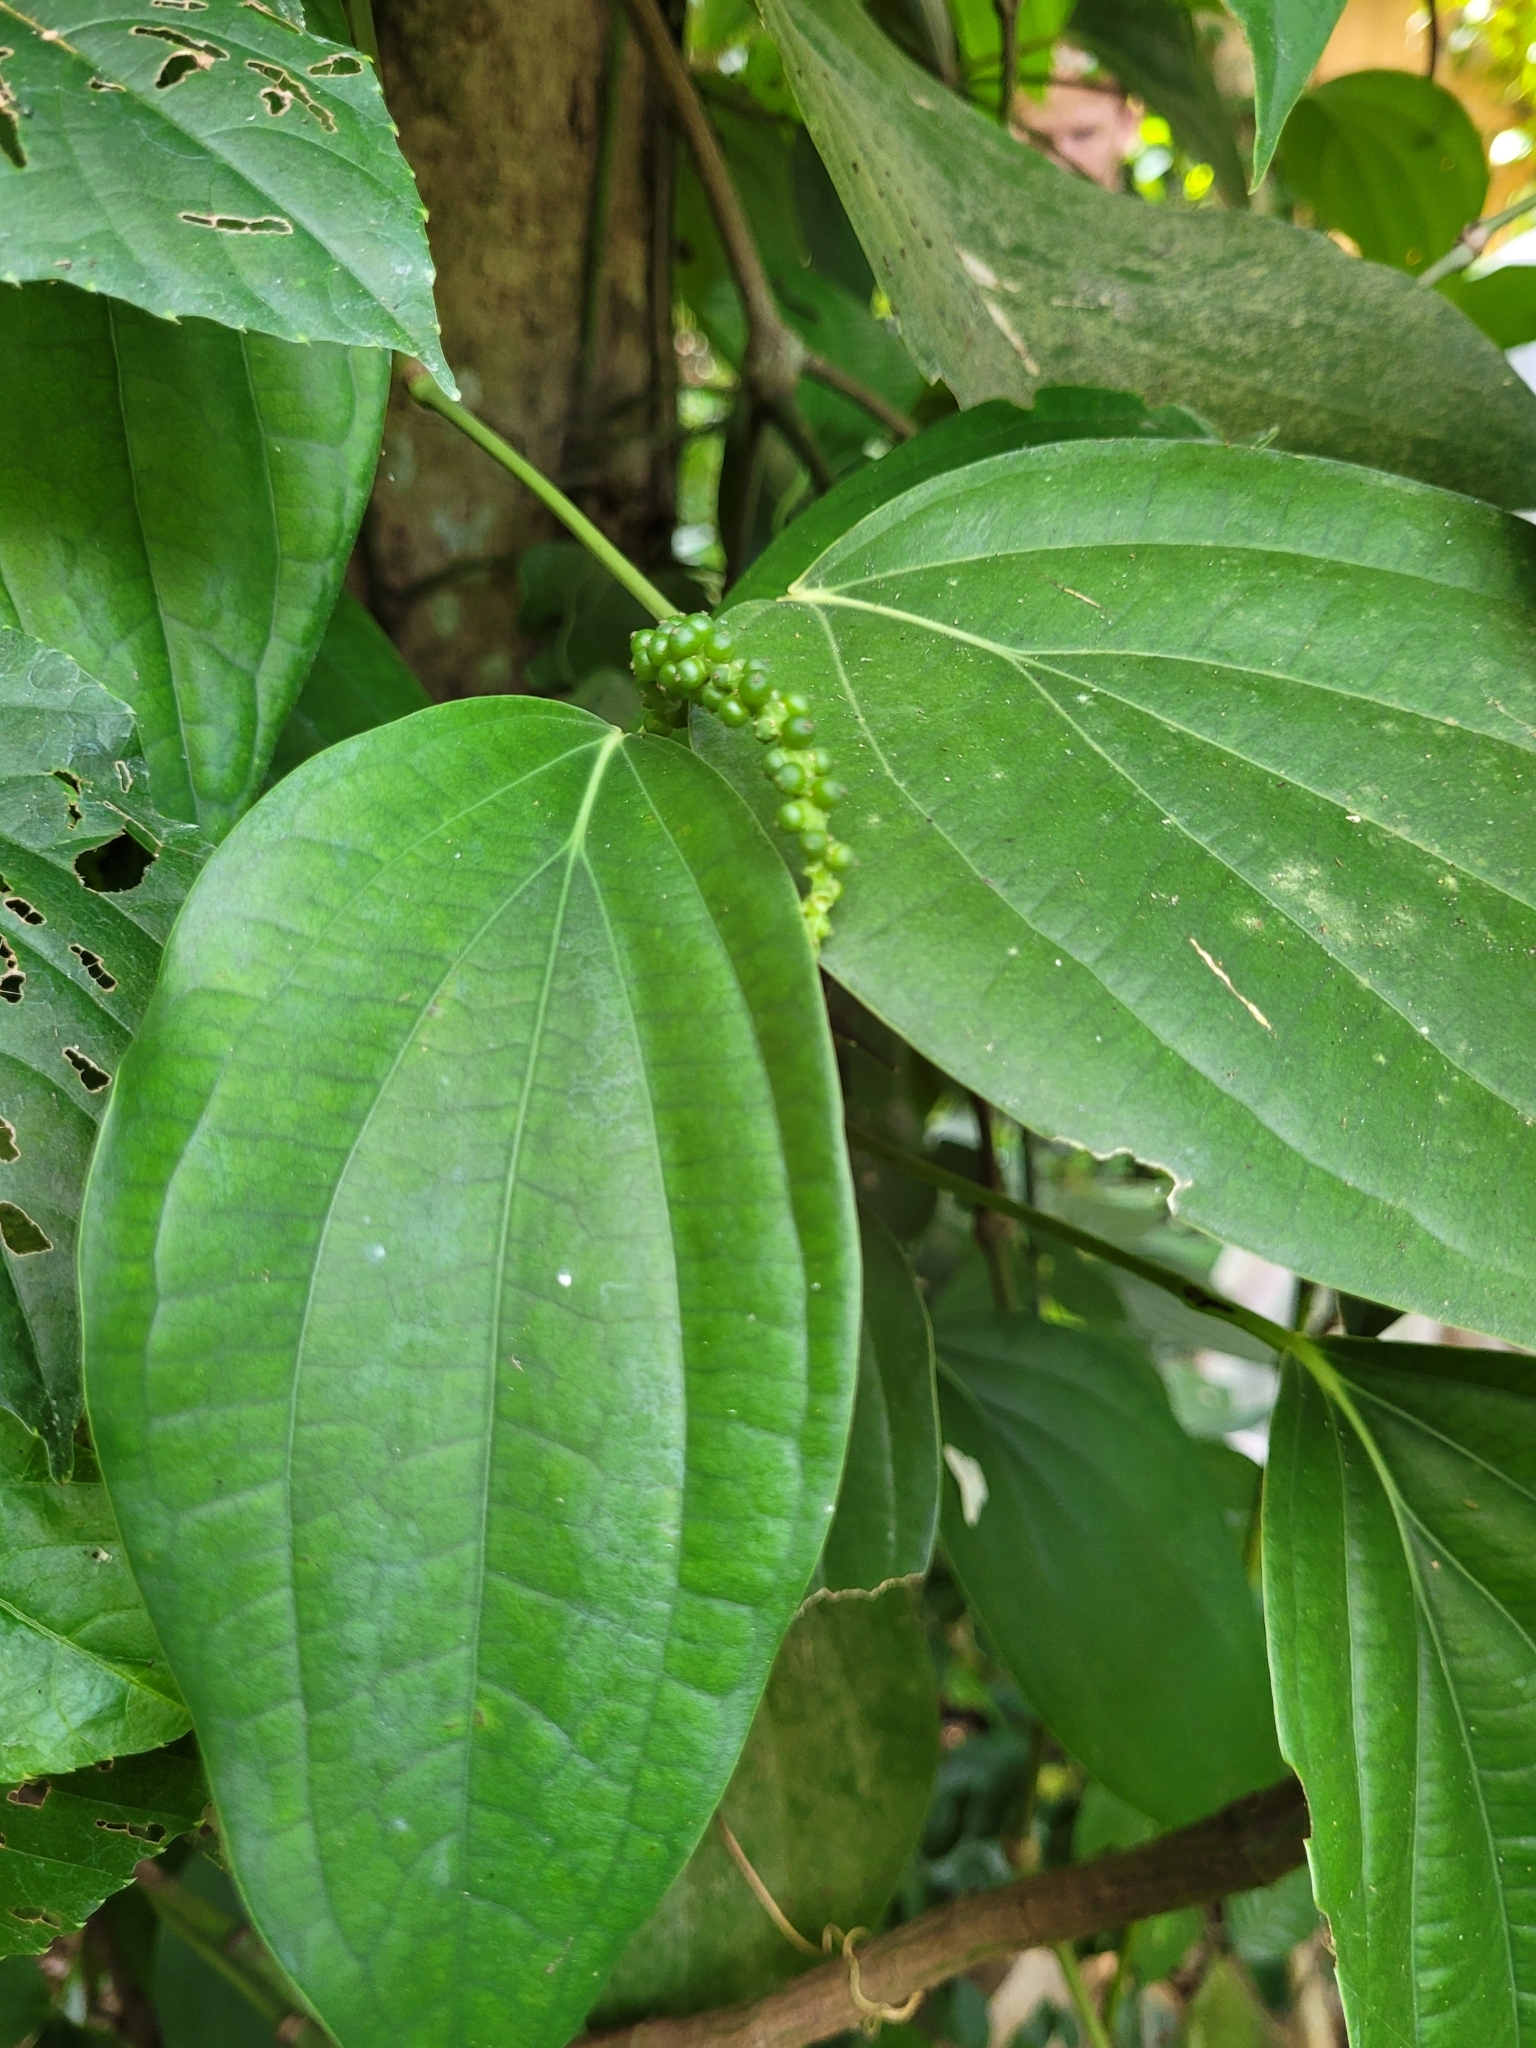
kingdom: Plantae
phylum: Tracheophyta
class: Magnoliopsida
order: Piperales
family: Piperaceae
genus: Piper
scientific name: Piper nigrum
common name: Black pepper
